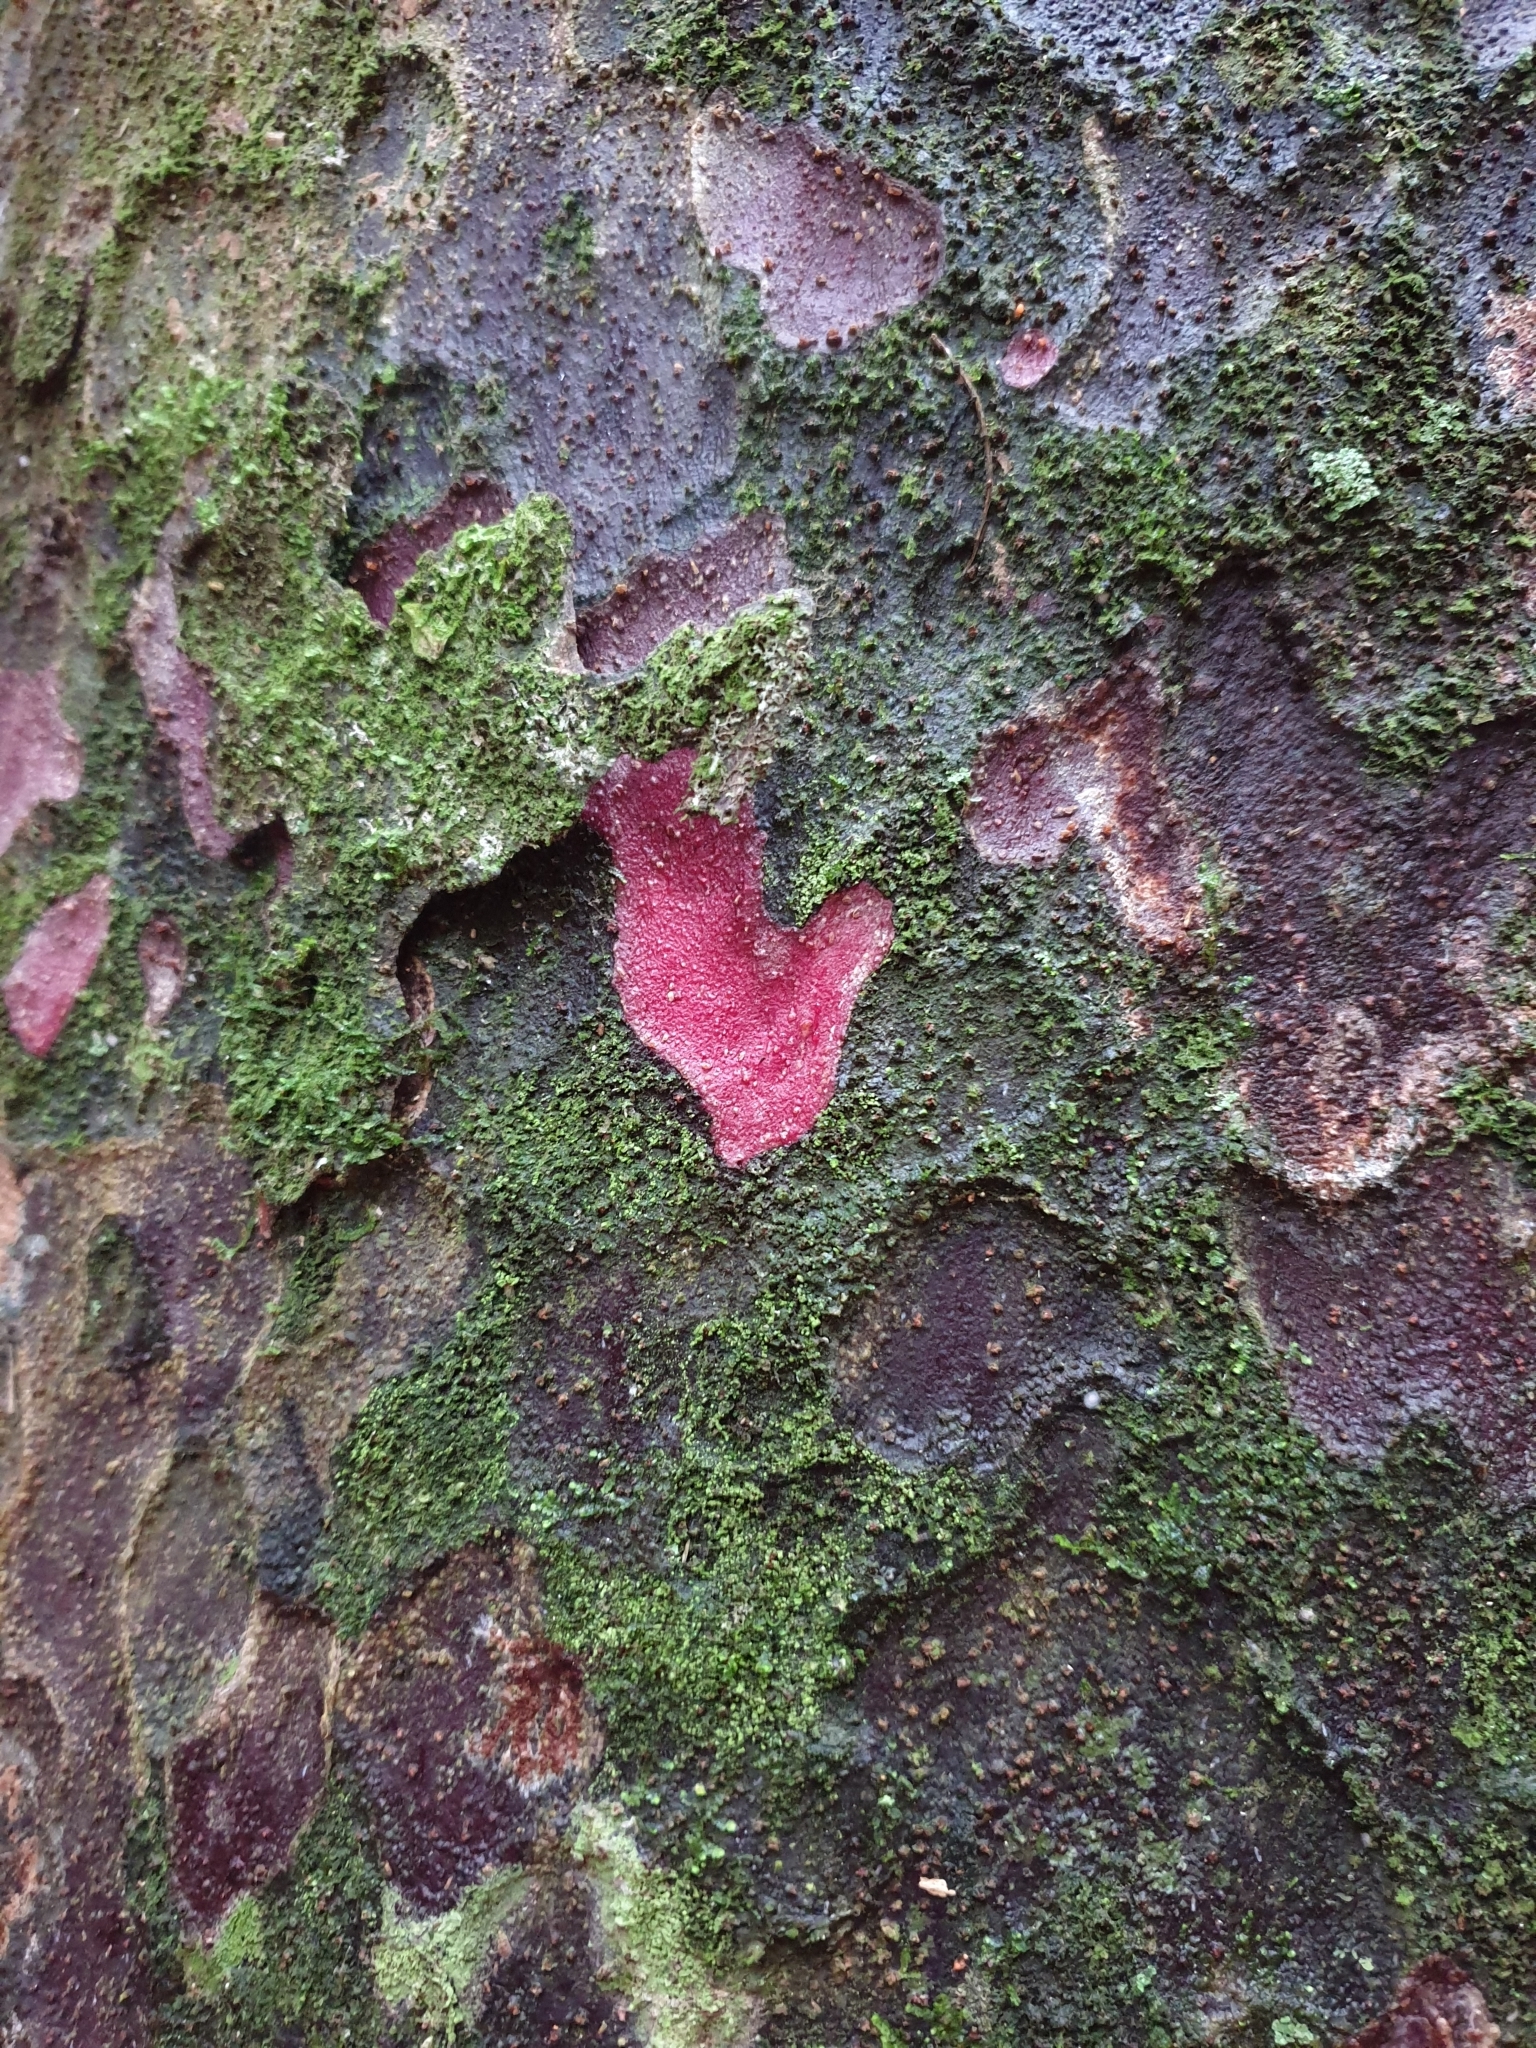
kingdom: Plantae
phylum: Tracheophyta
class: Pinopsida
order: Pinales
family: Podocarpaceae
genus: Prumnopitys
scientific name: Prumnopitys taxifolia
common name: Matai
